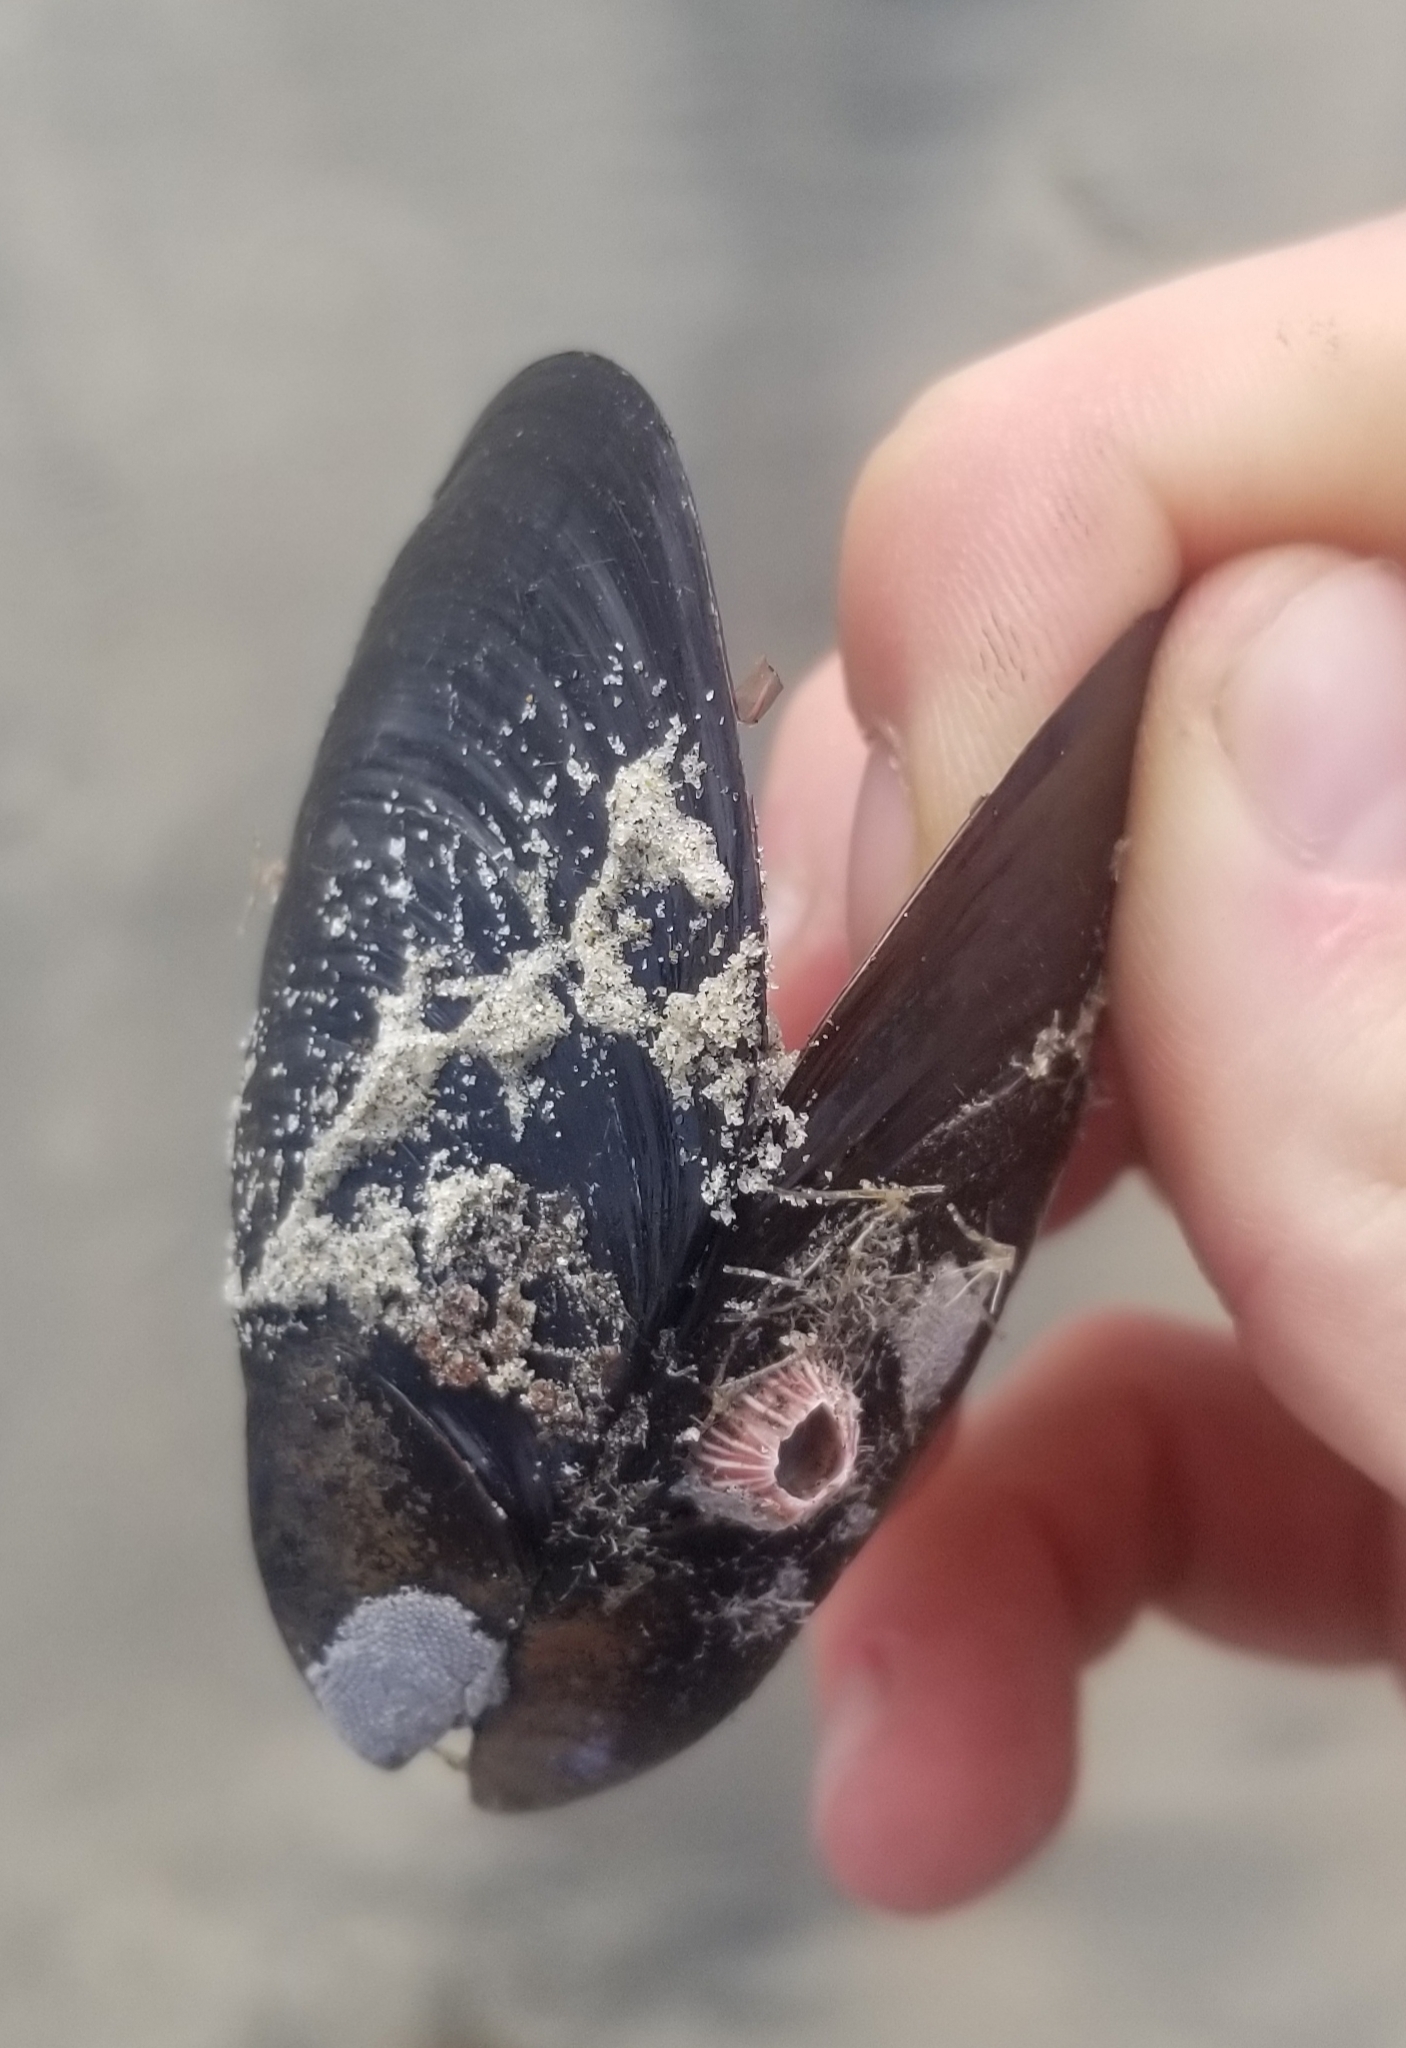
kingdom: Animalia
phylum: Mollusca
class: Bivalvia
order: Mytilida
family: Mytilidae
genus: Mytilus
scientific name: Mytilus californianus
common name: California mussel
